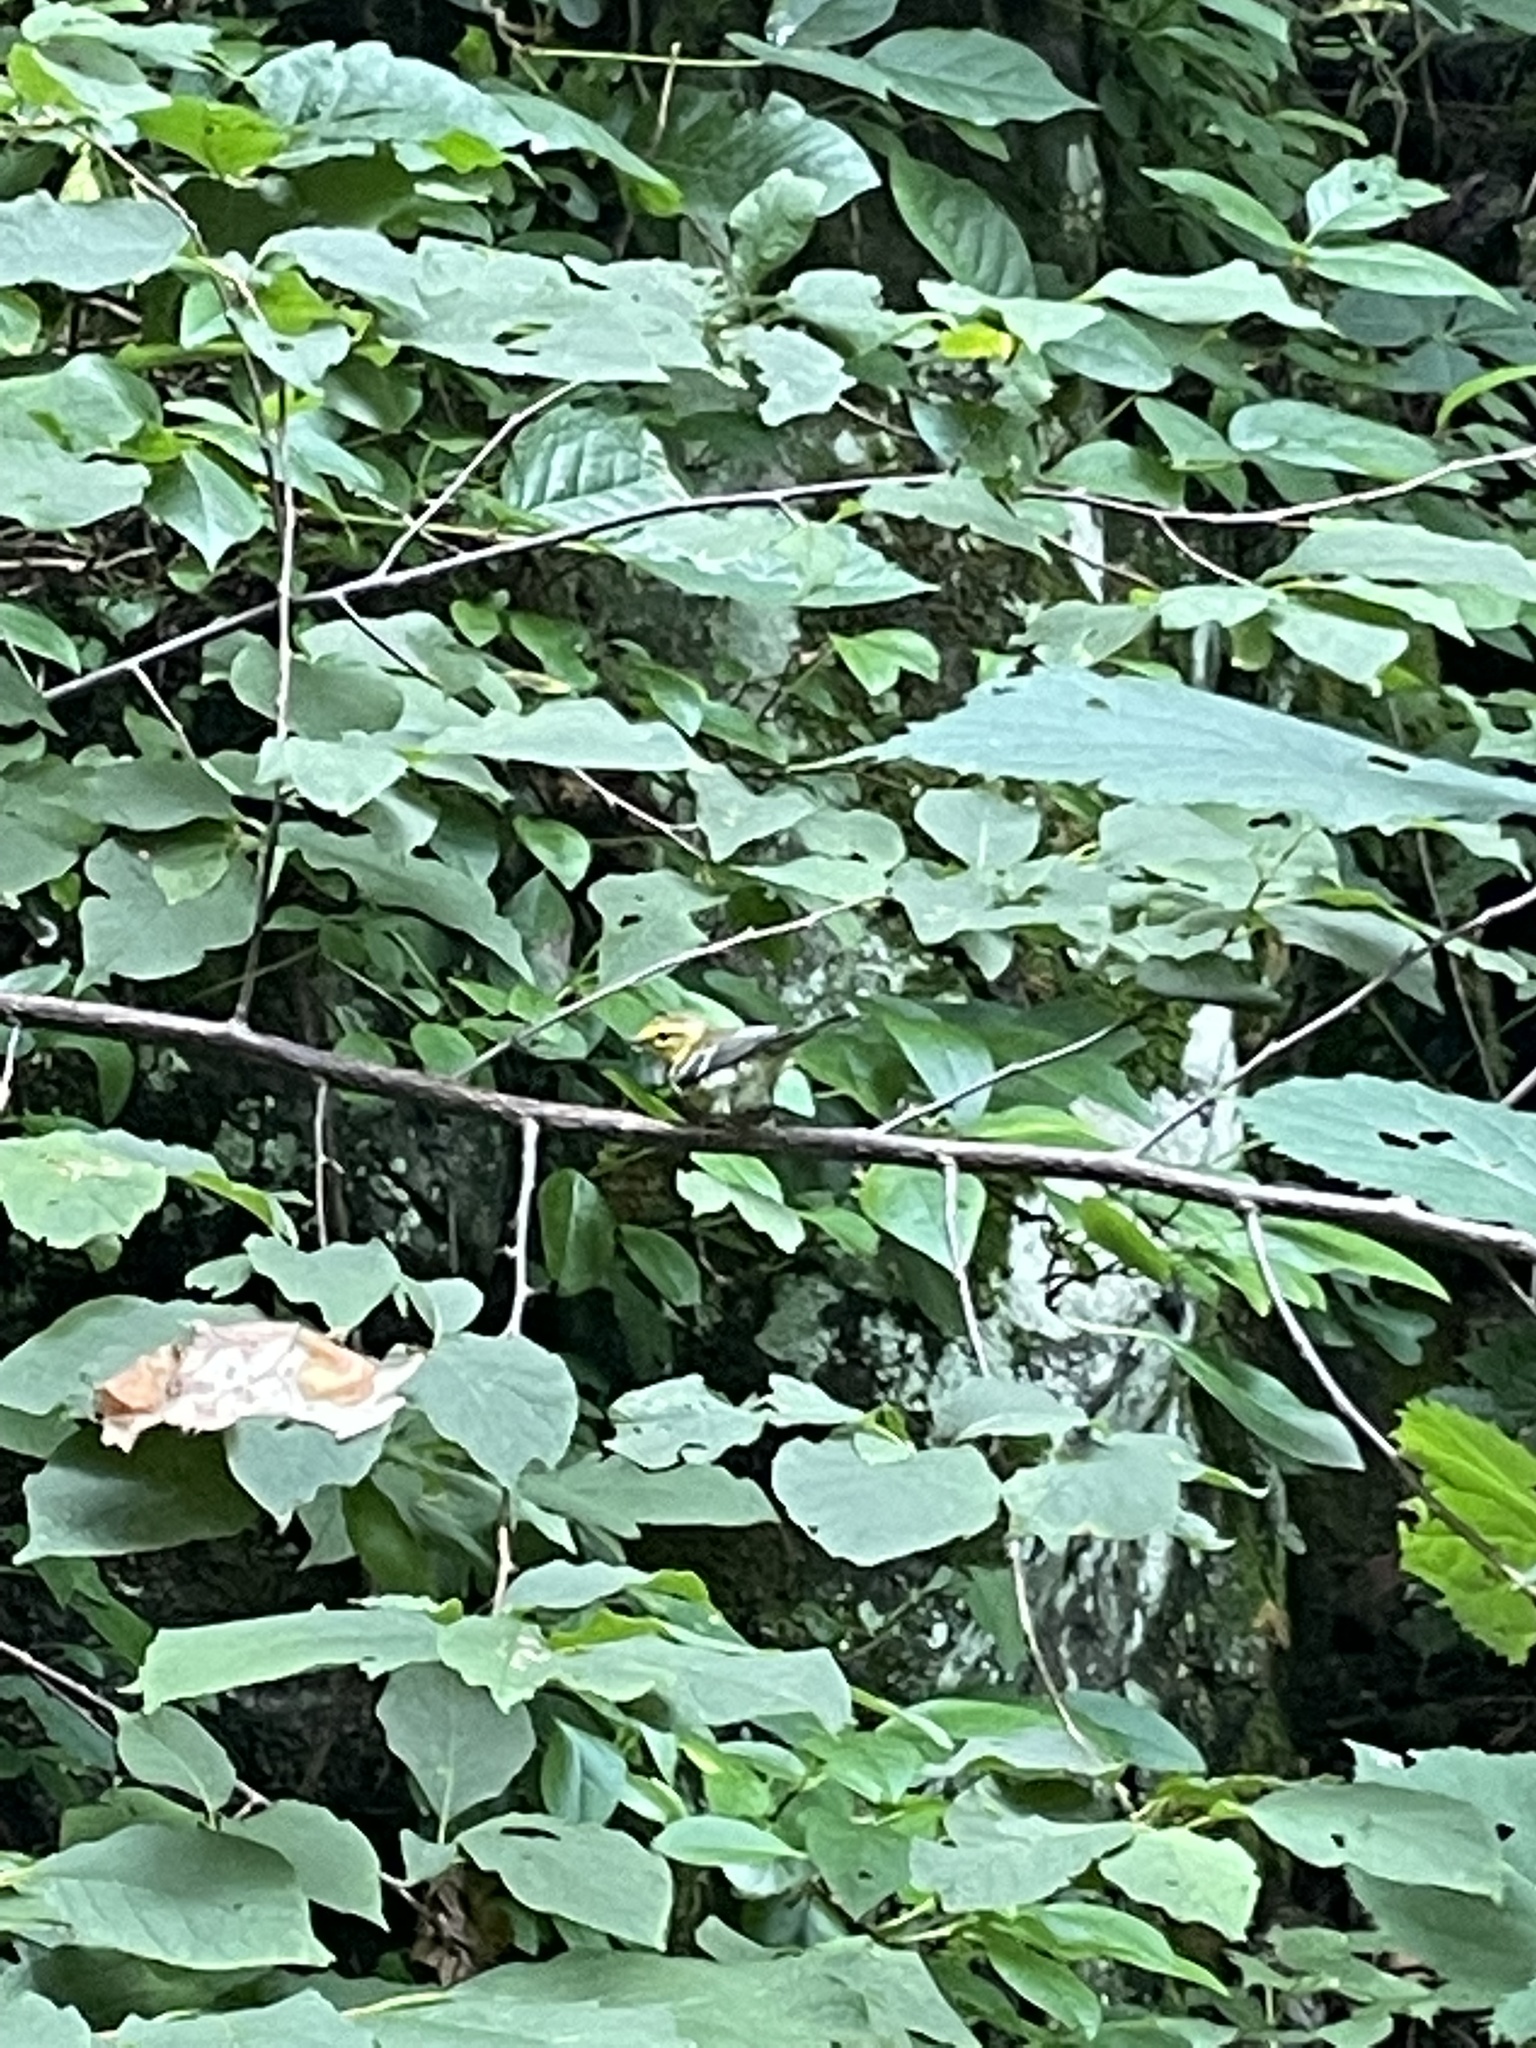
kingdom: Animalia
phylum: Chordata
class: Aves
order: Passeriformes
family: Parulidae
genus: Setophaga
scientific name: Setophaga virens
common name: Black-throated green warbler
